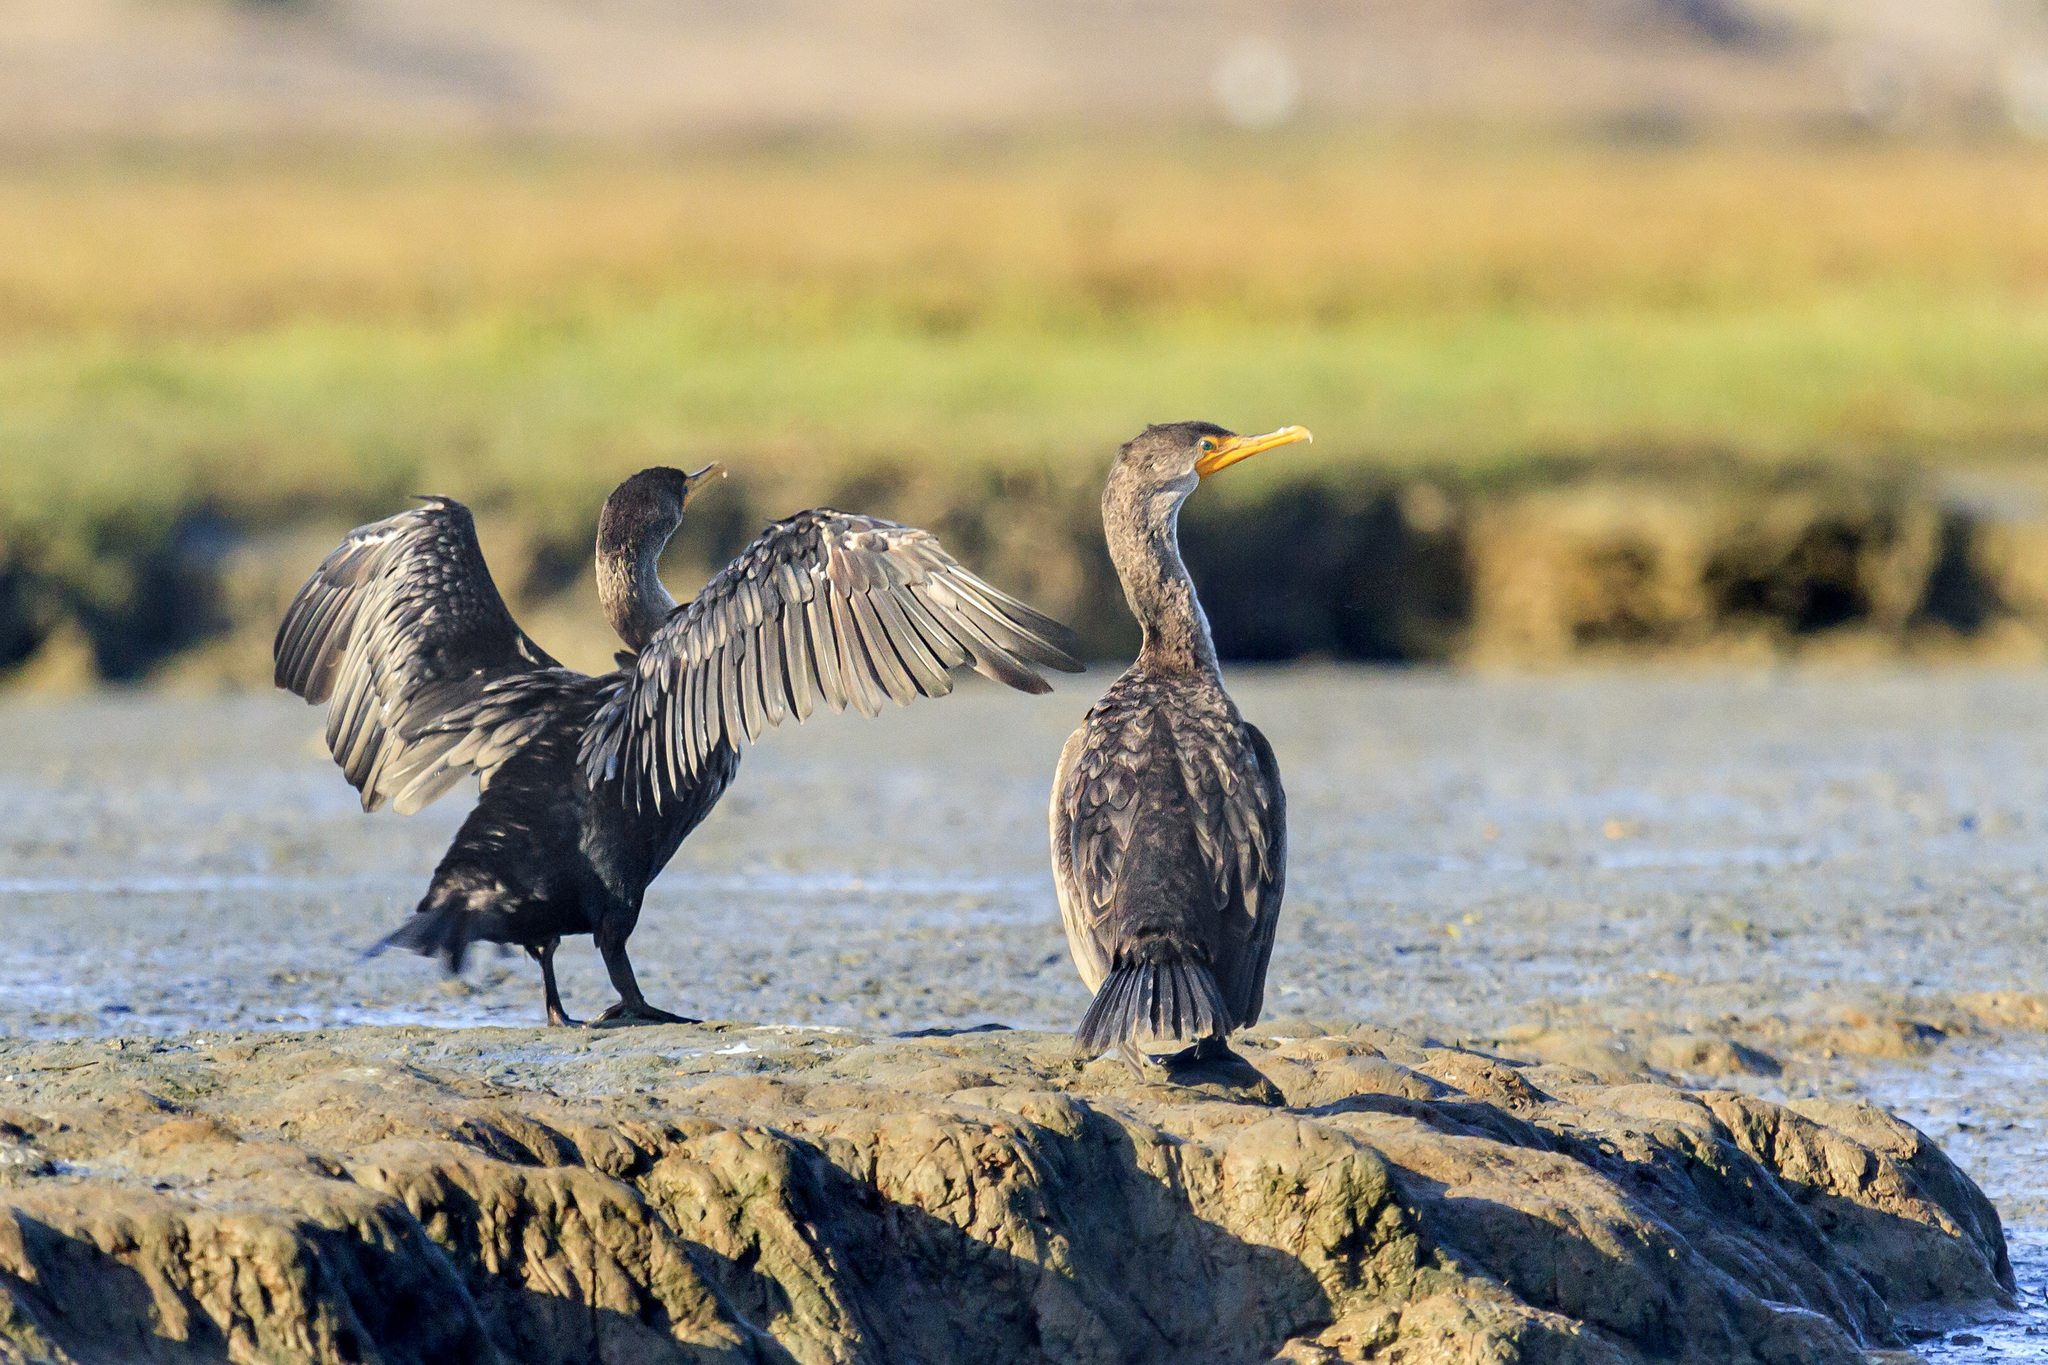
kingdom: Animalia
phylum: Chordata
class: Aves
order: Suliformes
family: Phalacrocoracidae
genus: Phalacrocorax
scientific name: Phalacrocorax auritus
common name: Double-crested cormorant
